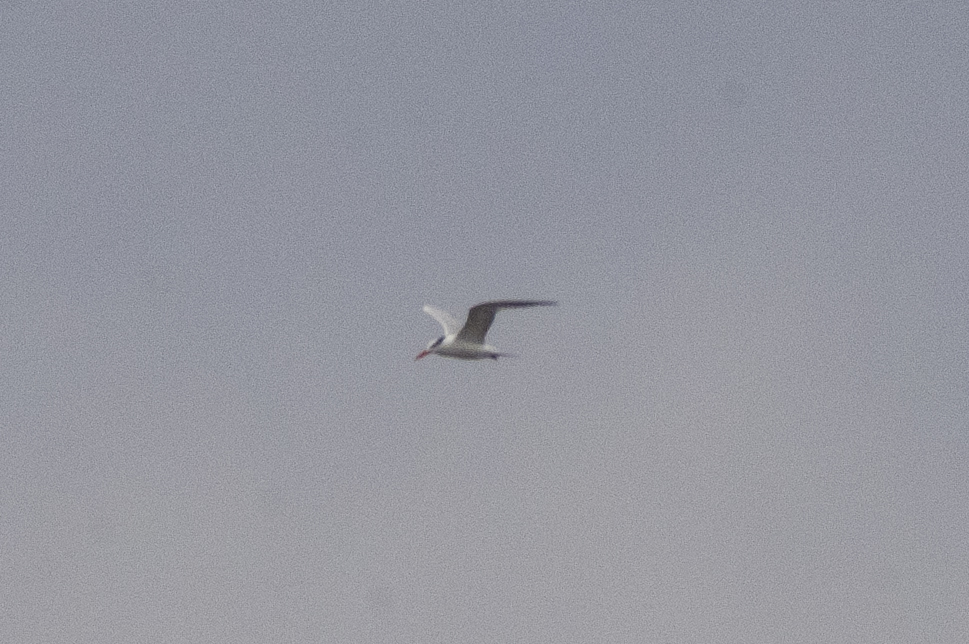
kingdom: Animalia
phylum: Chordata
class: Aves
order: Charadriiformes
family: Laridae
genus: Thalasseus
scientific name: Thalasseus maximus
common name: Royal tern
